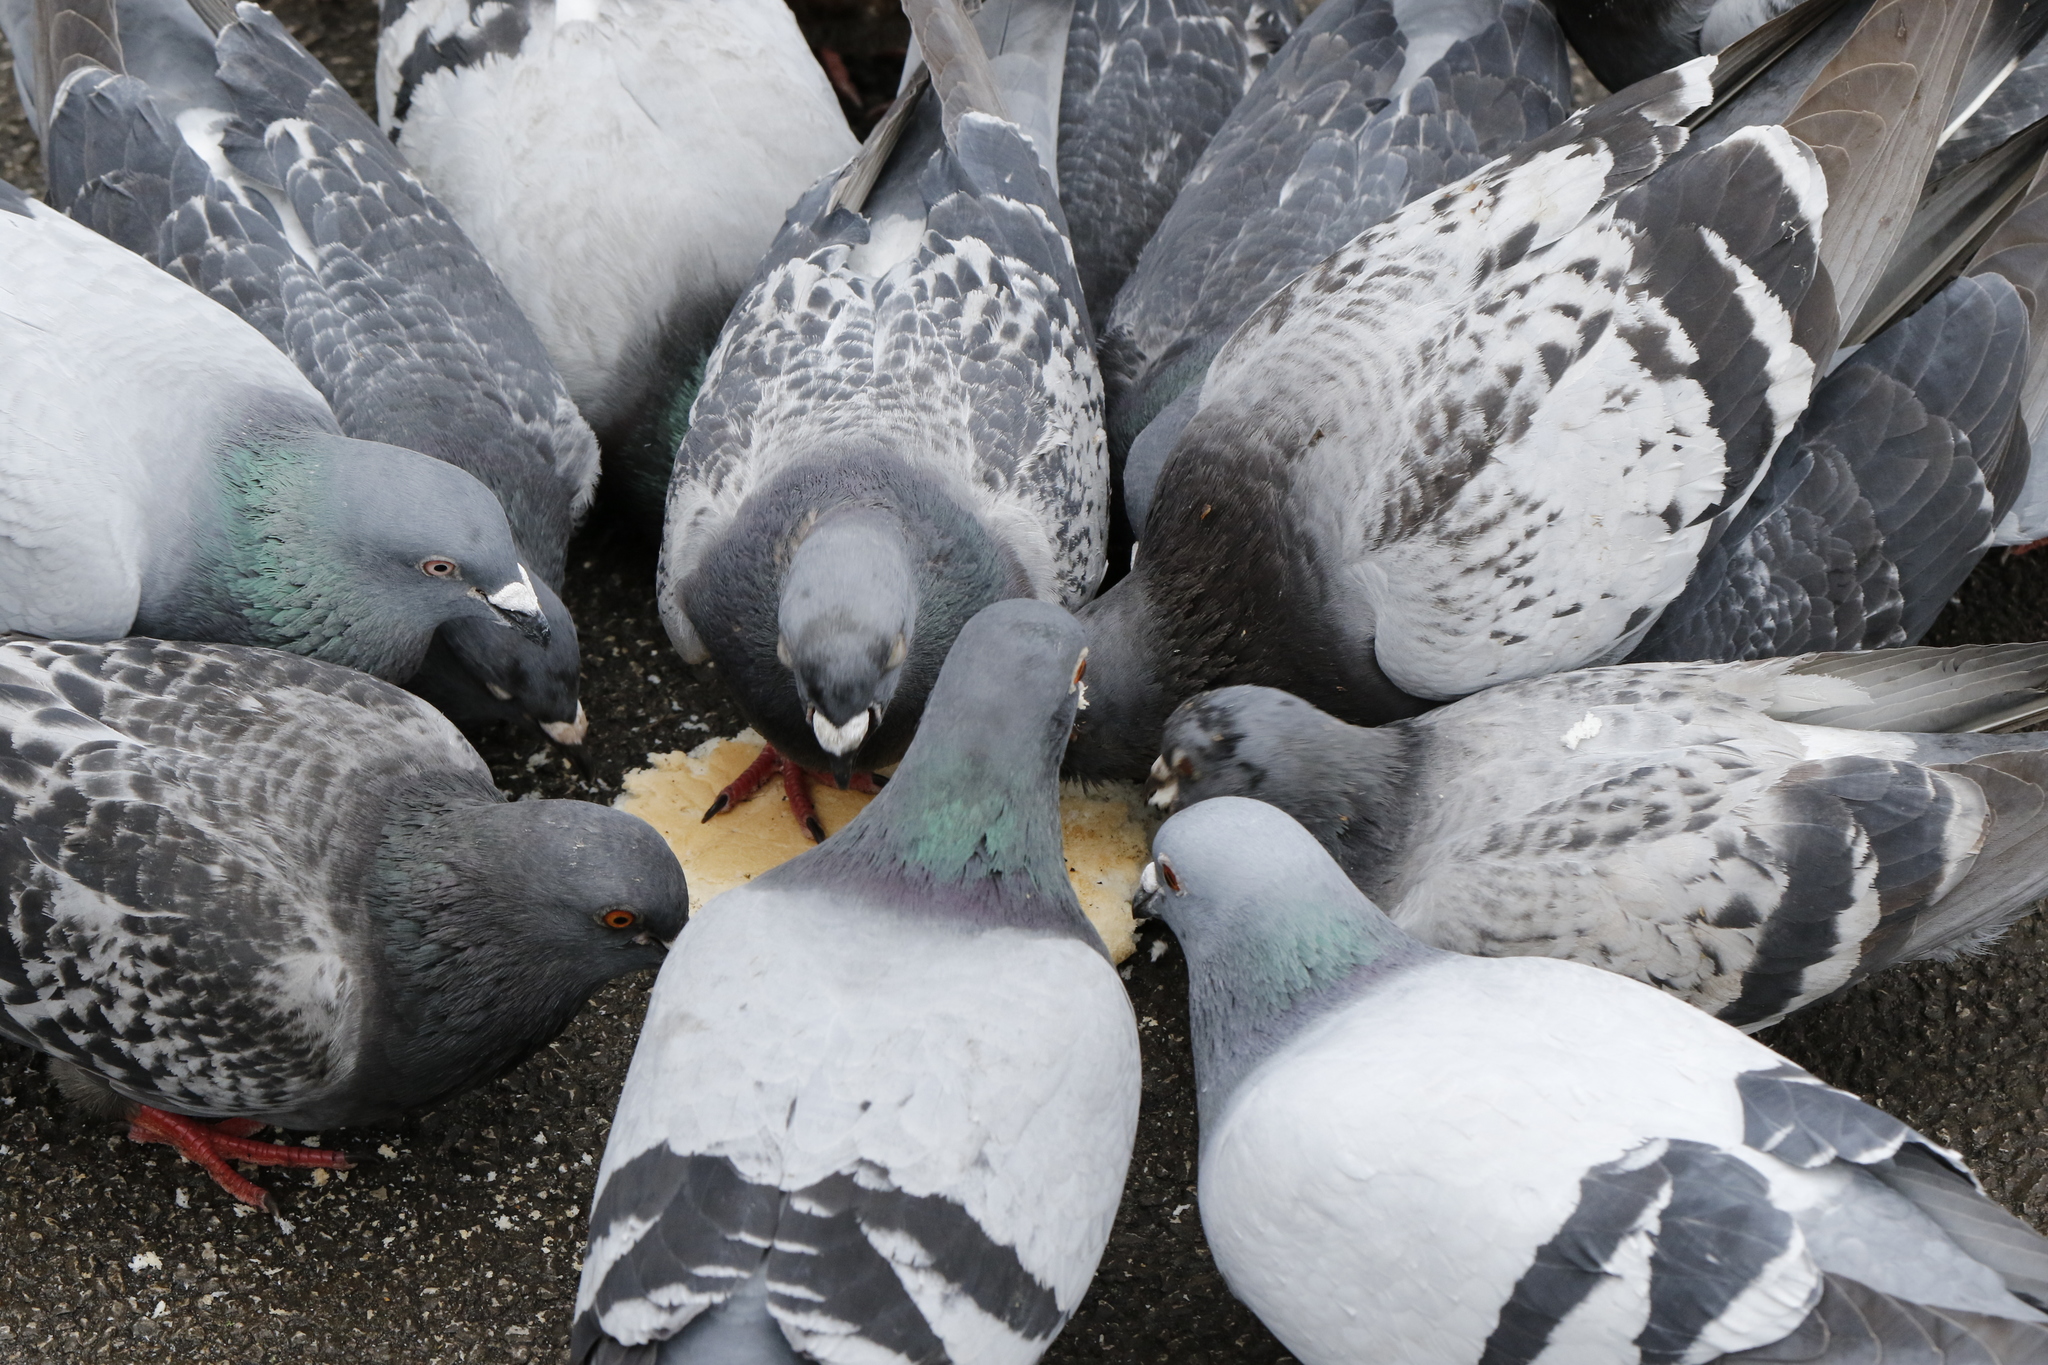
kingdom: Animalia
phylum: Chordata
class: Aves
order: Columbiformes
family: Columbidae
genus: Columba
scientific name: Columba livia
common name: Rock pigeon
